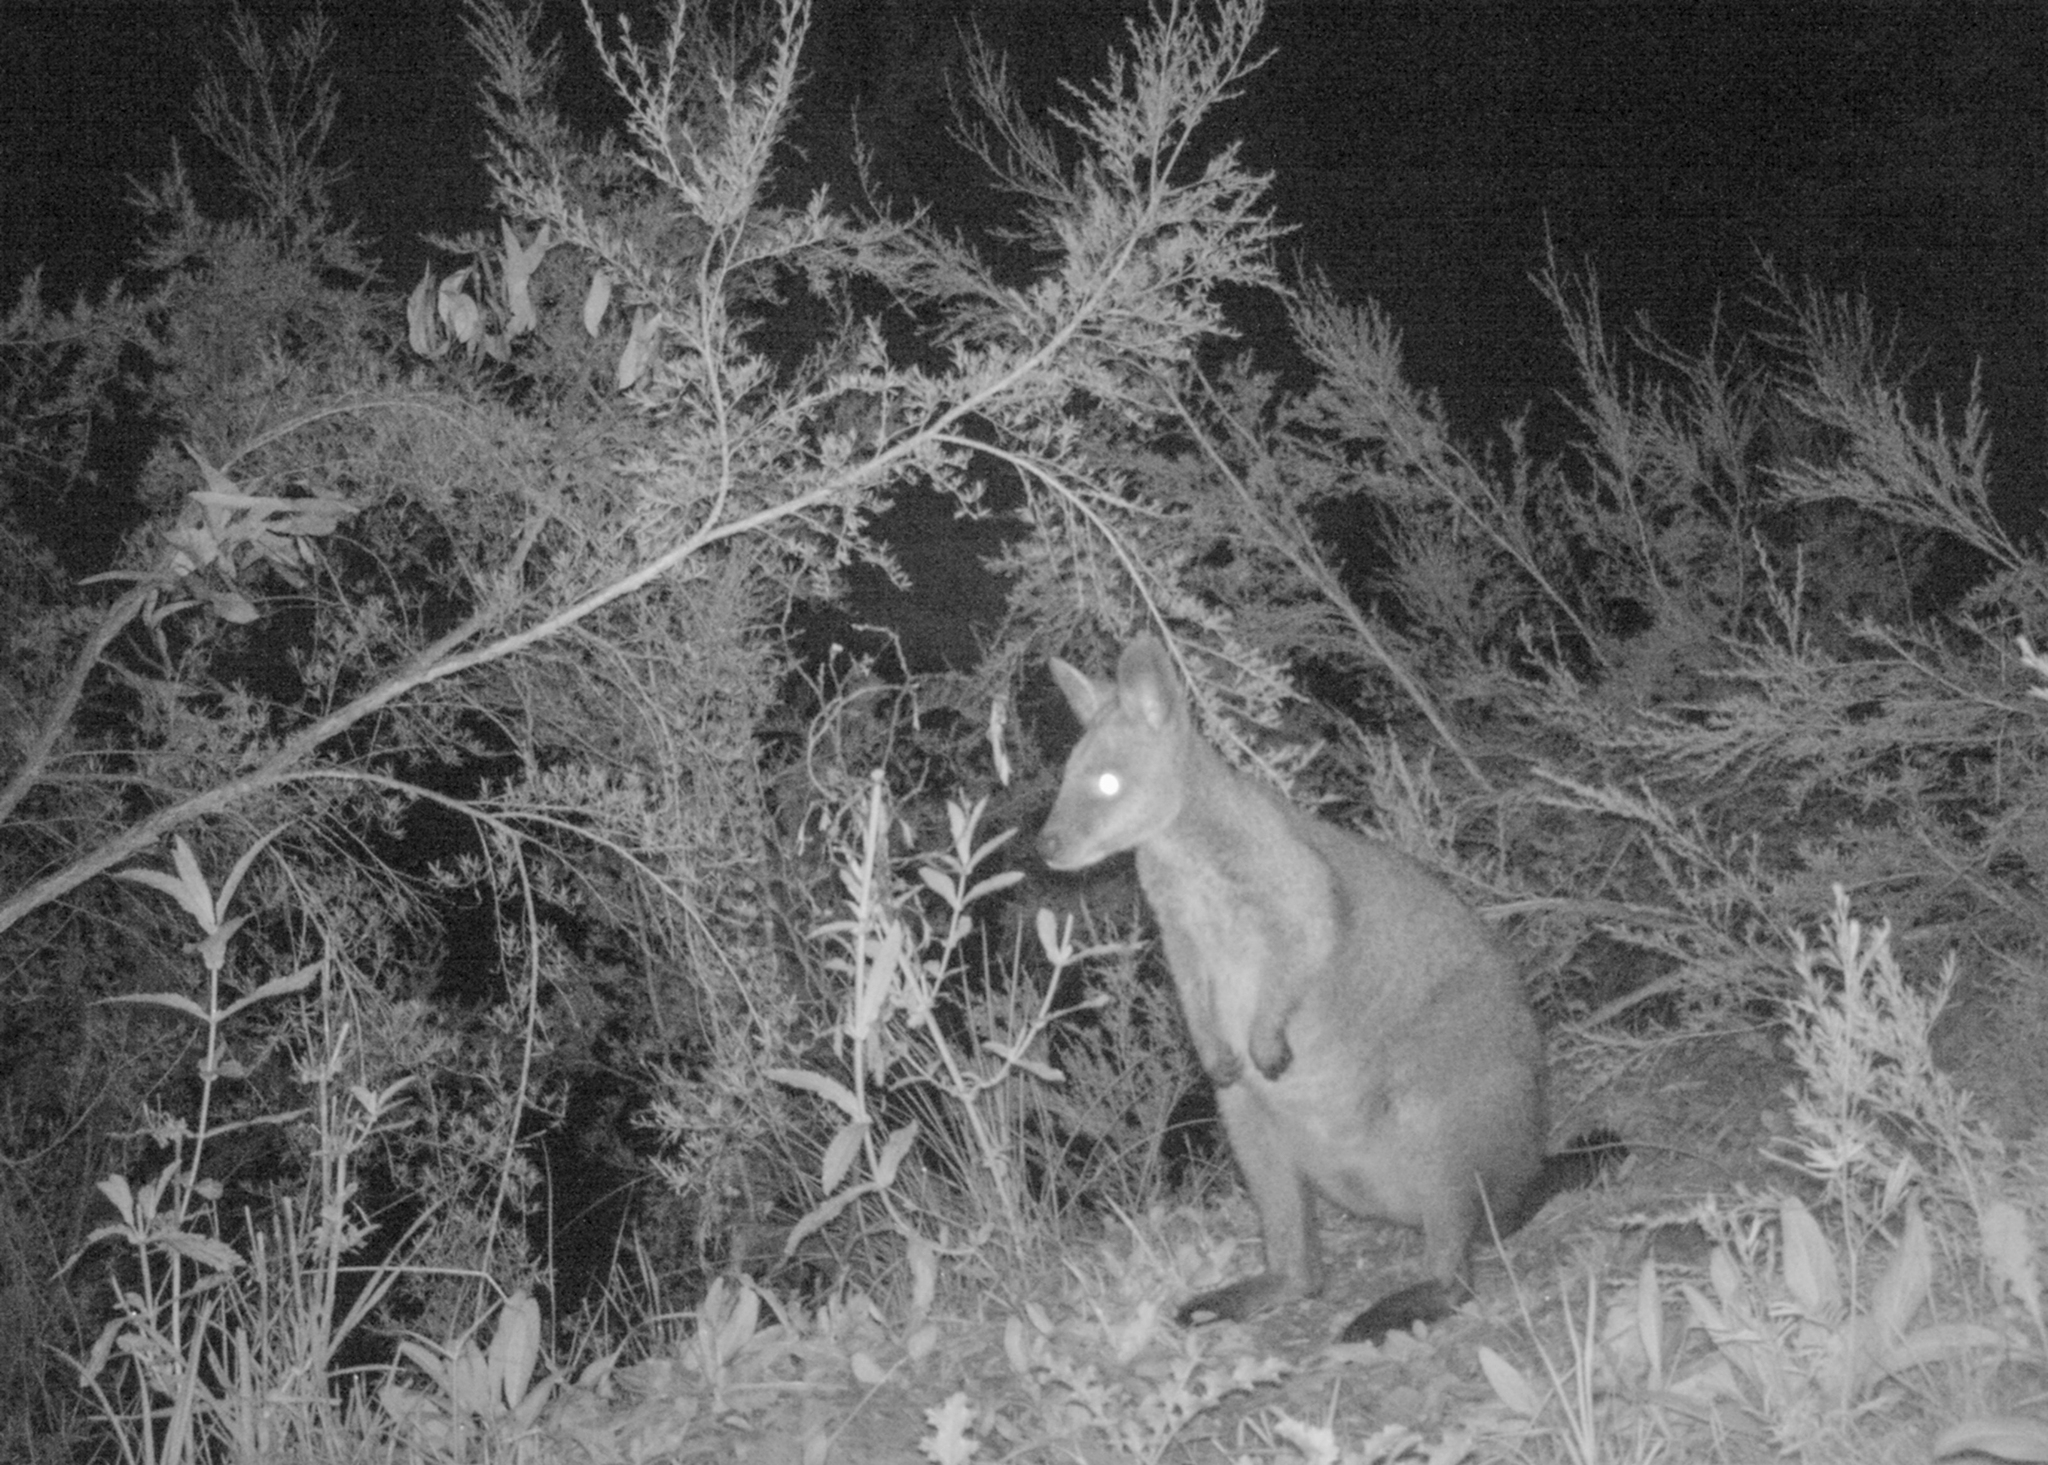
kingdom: Animalia
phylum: Chordata
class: Mammalia
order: Diprotodontia
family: Macropodidae
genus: Wallabia
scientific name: Wallabia bicolor
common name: Swamp wallaby
